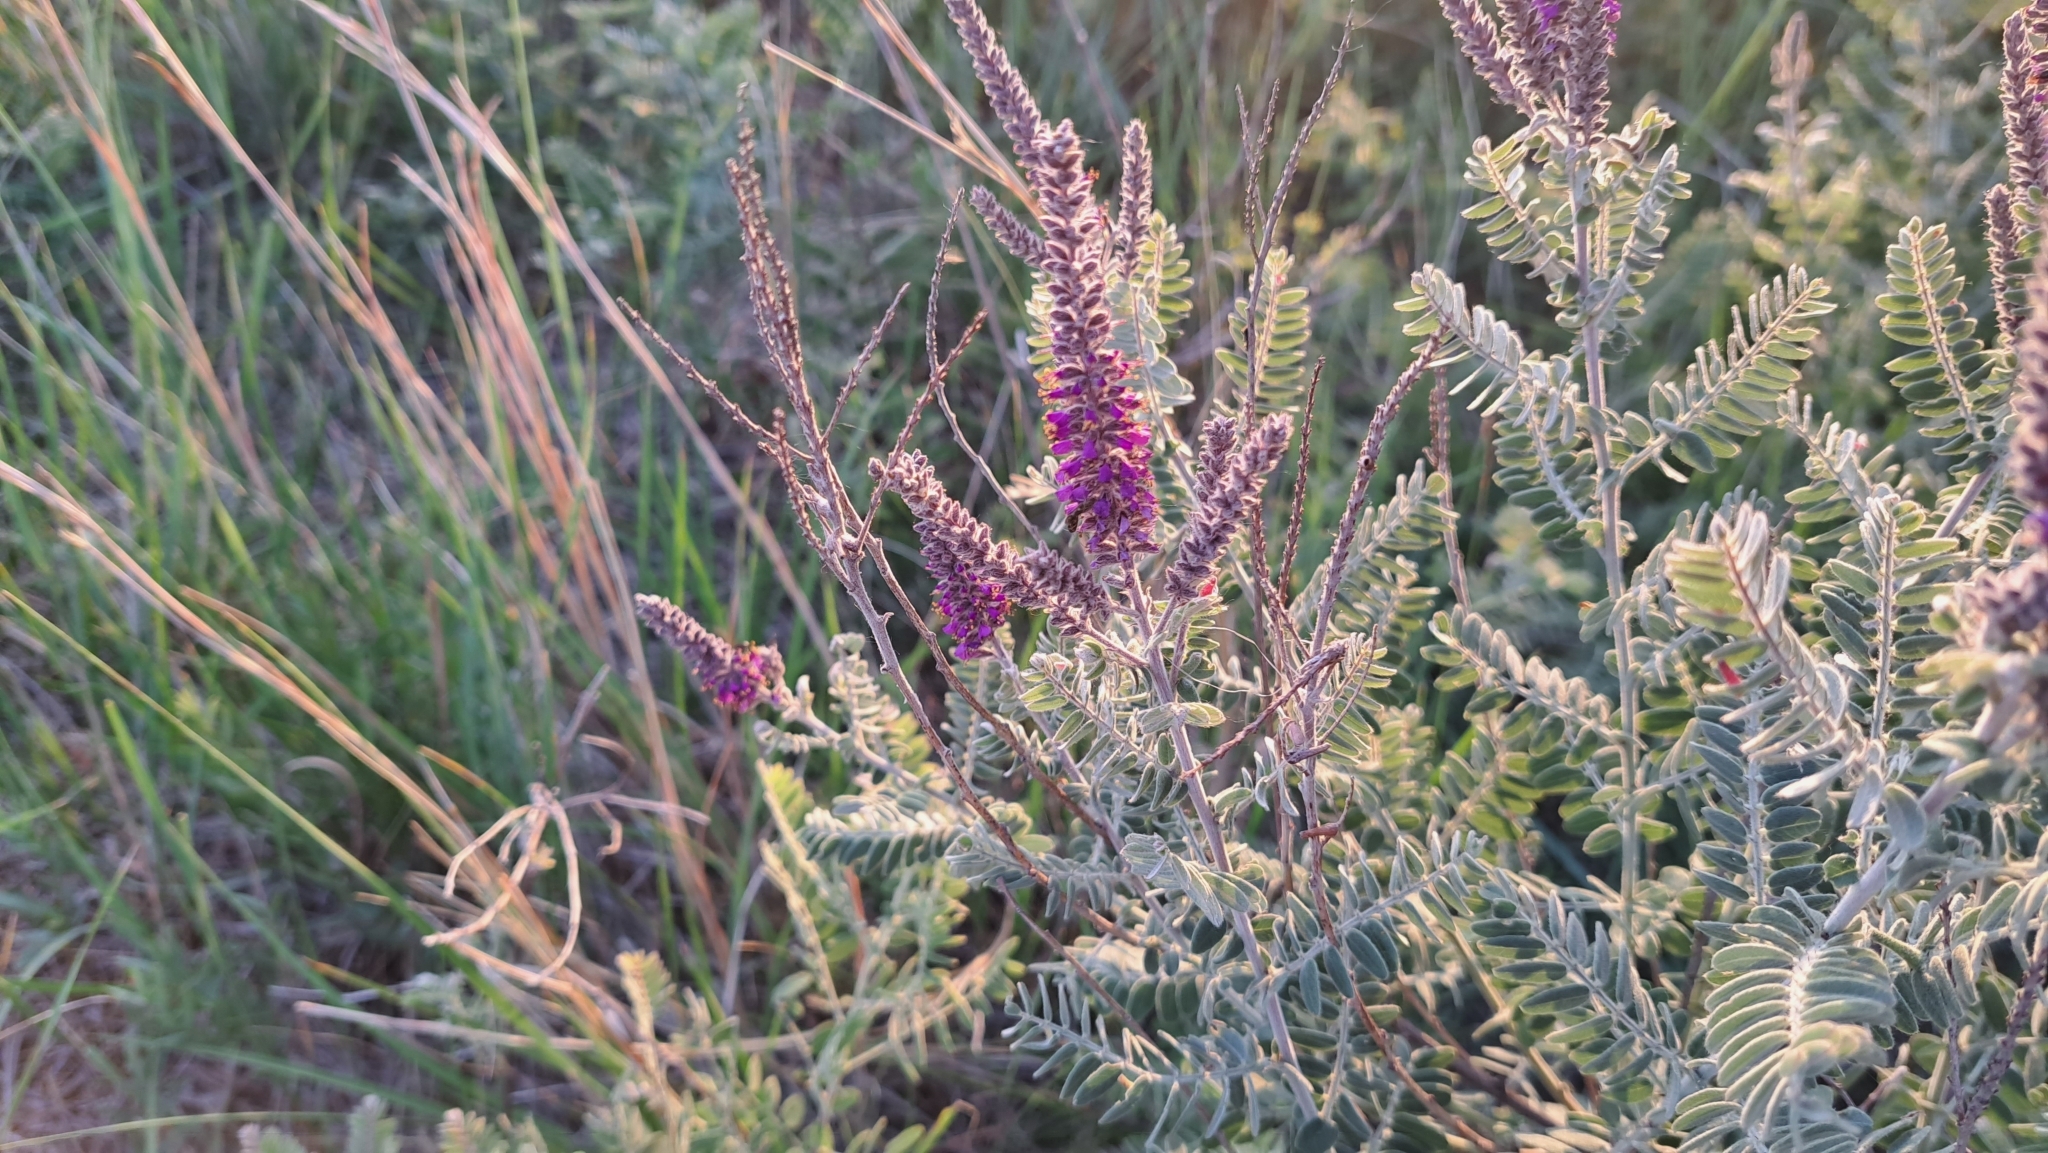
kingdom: Plantae
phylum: Tracheophyta
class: Magnoliopsida
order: Fabales
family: Fabaceae
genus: Amorpha
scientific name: Amorpha canescens
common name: Leadplant
